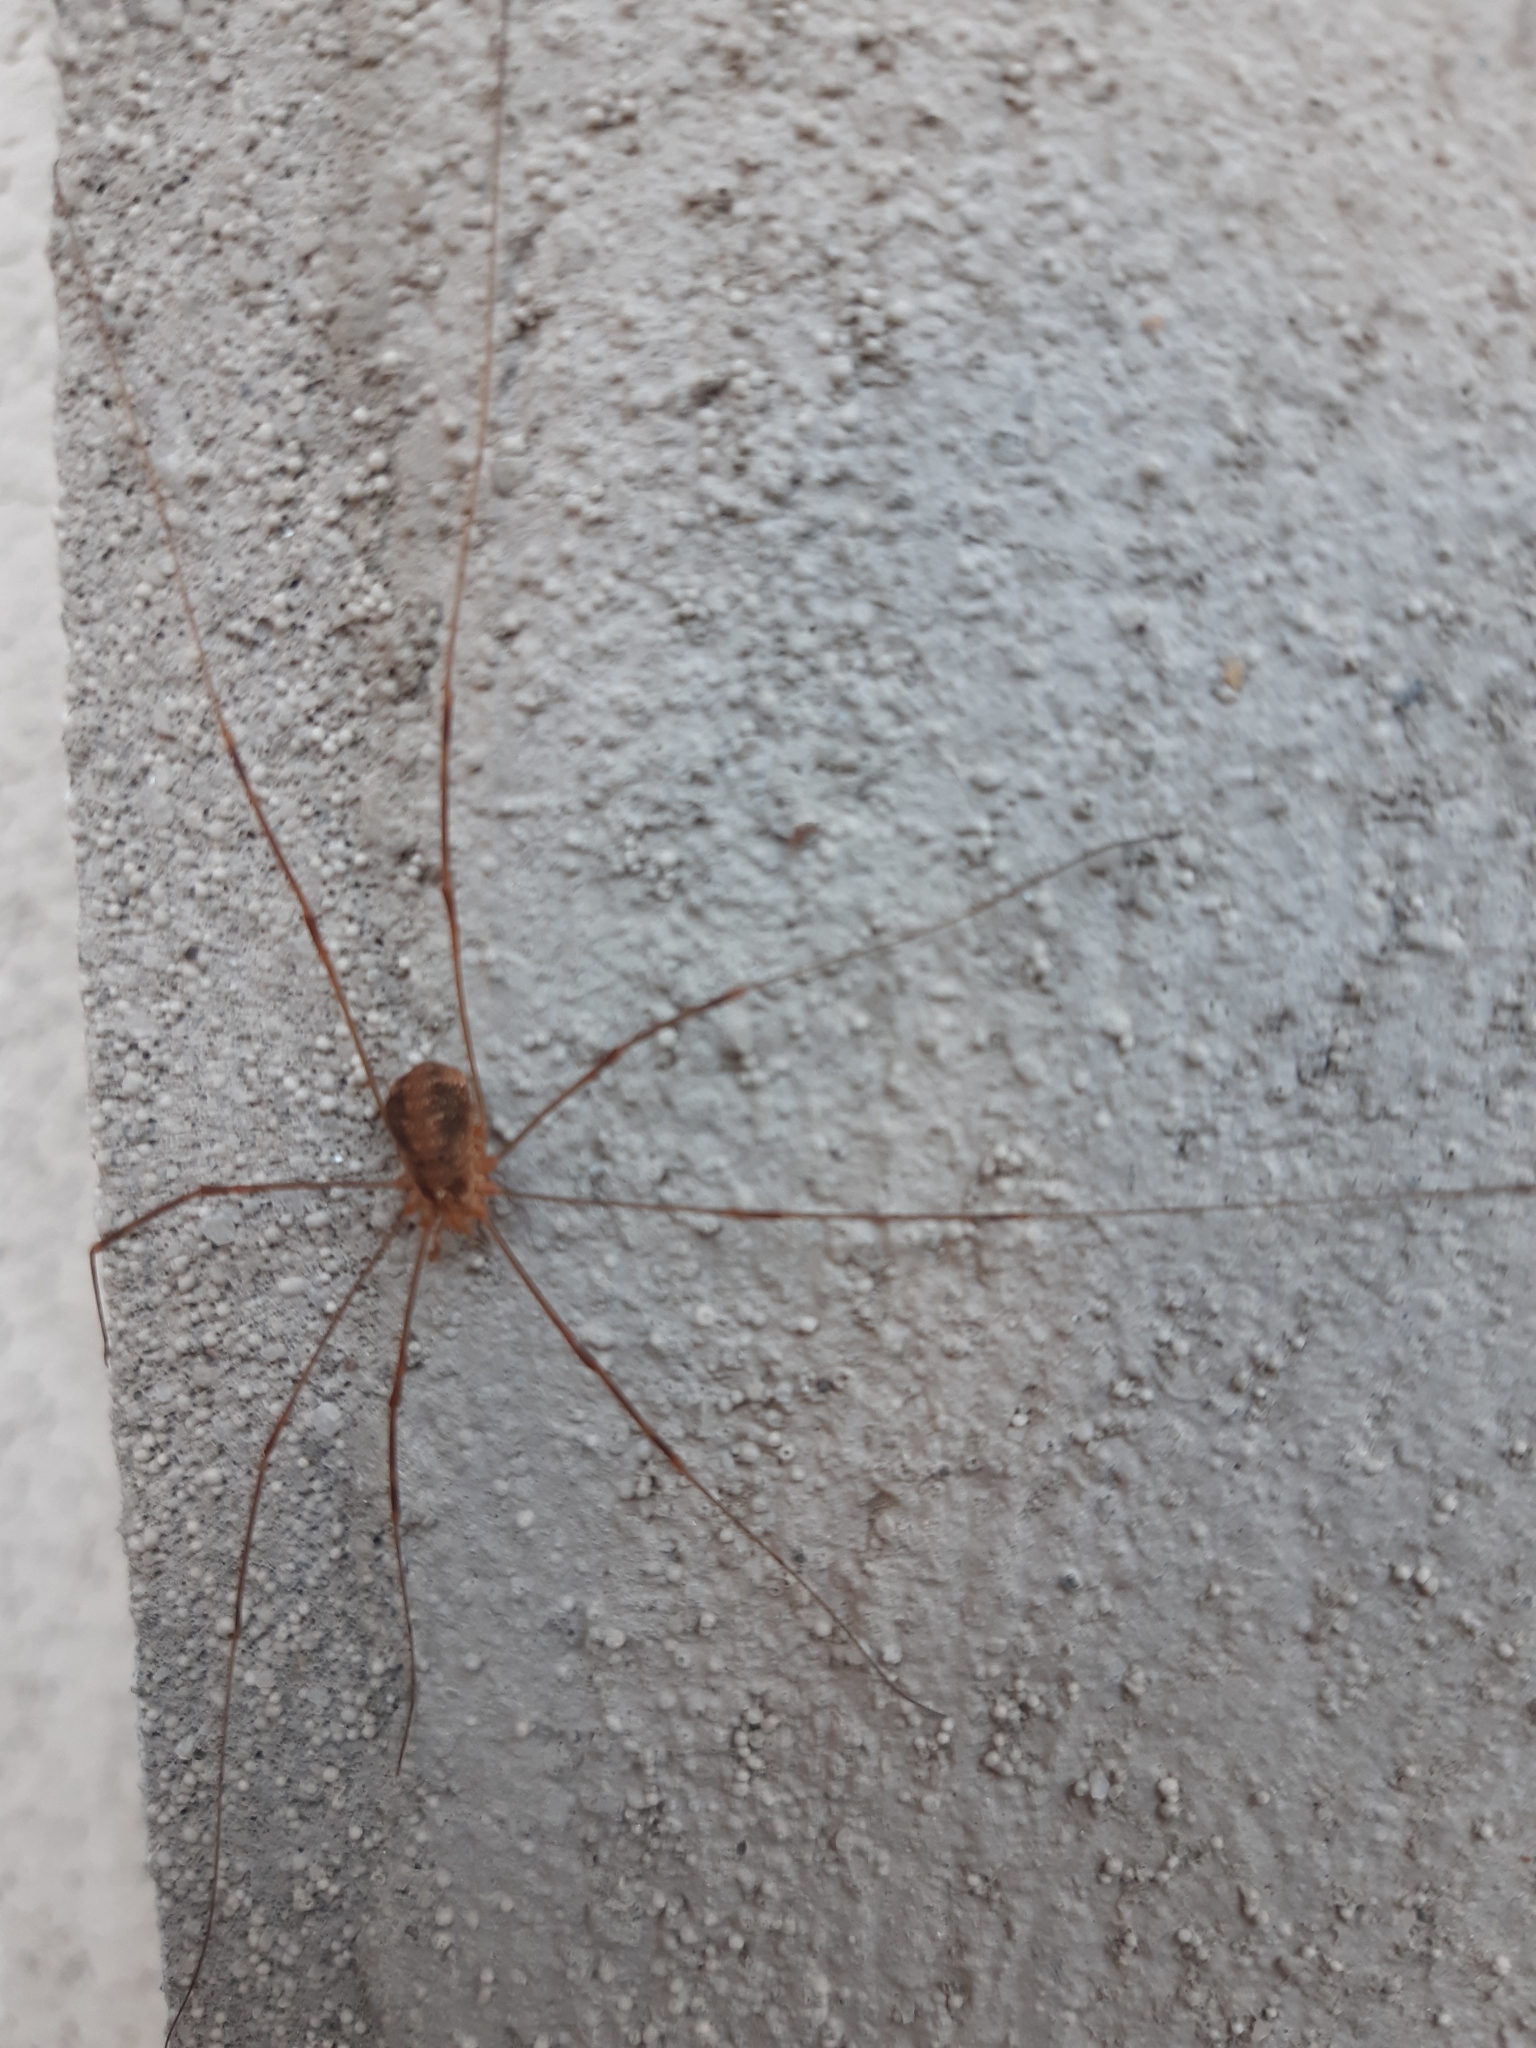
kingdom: Animalia
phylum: Arthropoda
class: Arachnida
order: Opiliones
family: Phalangiidae
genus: Opilio
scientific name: Opilio canestrinii
